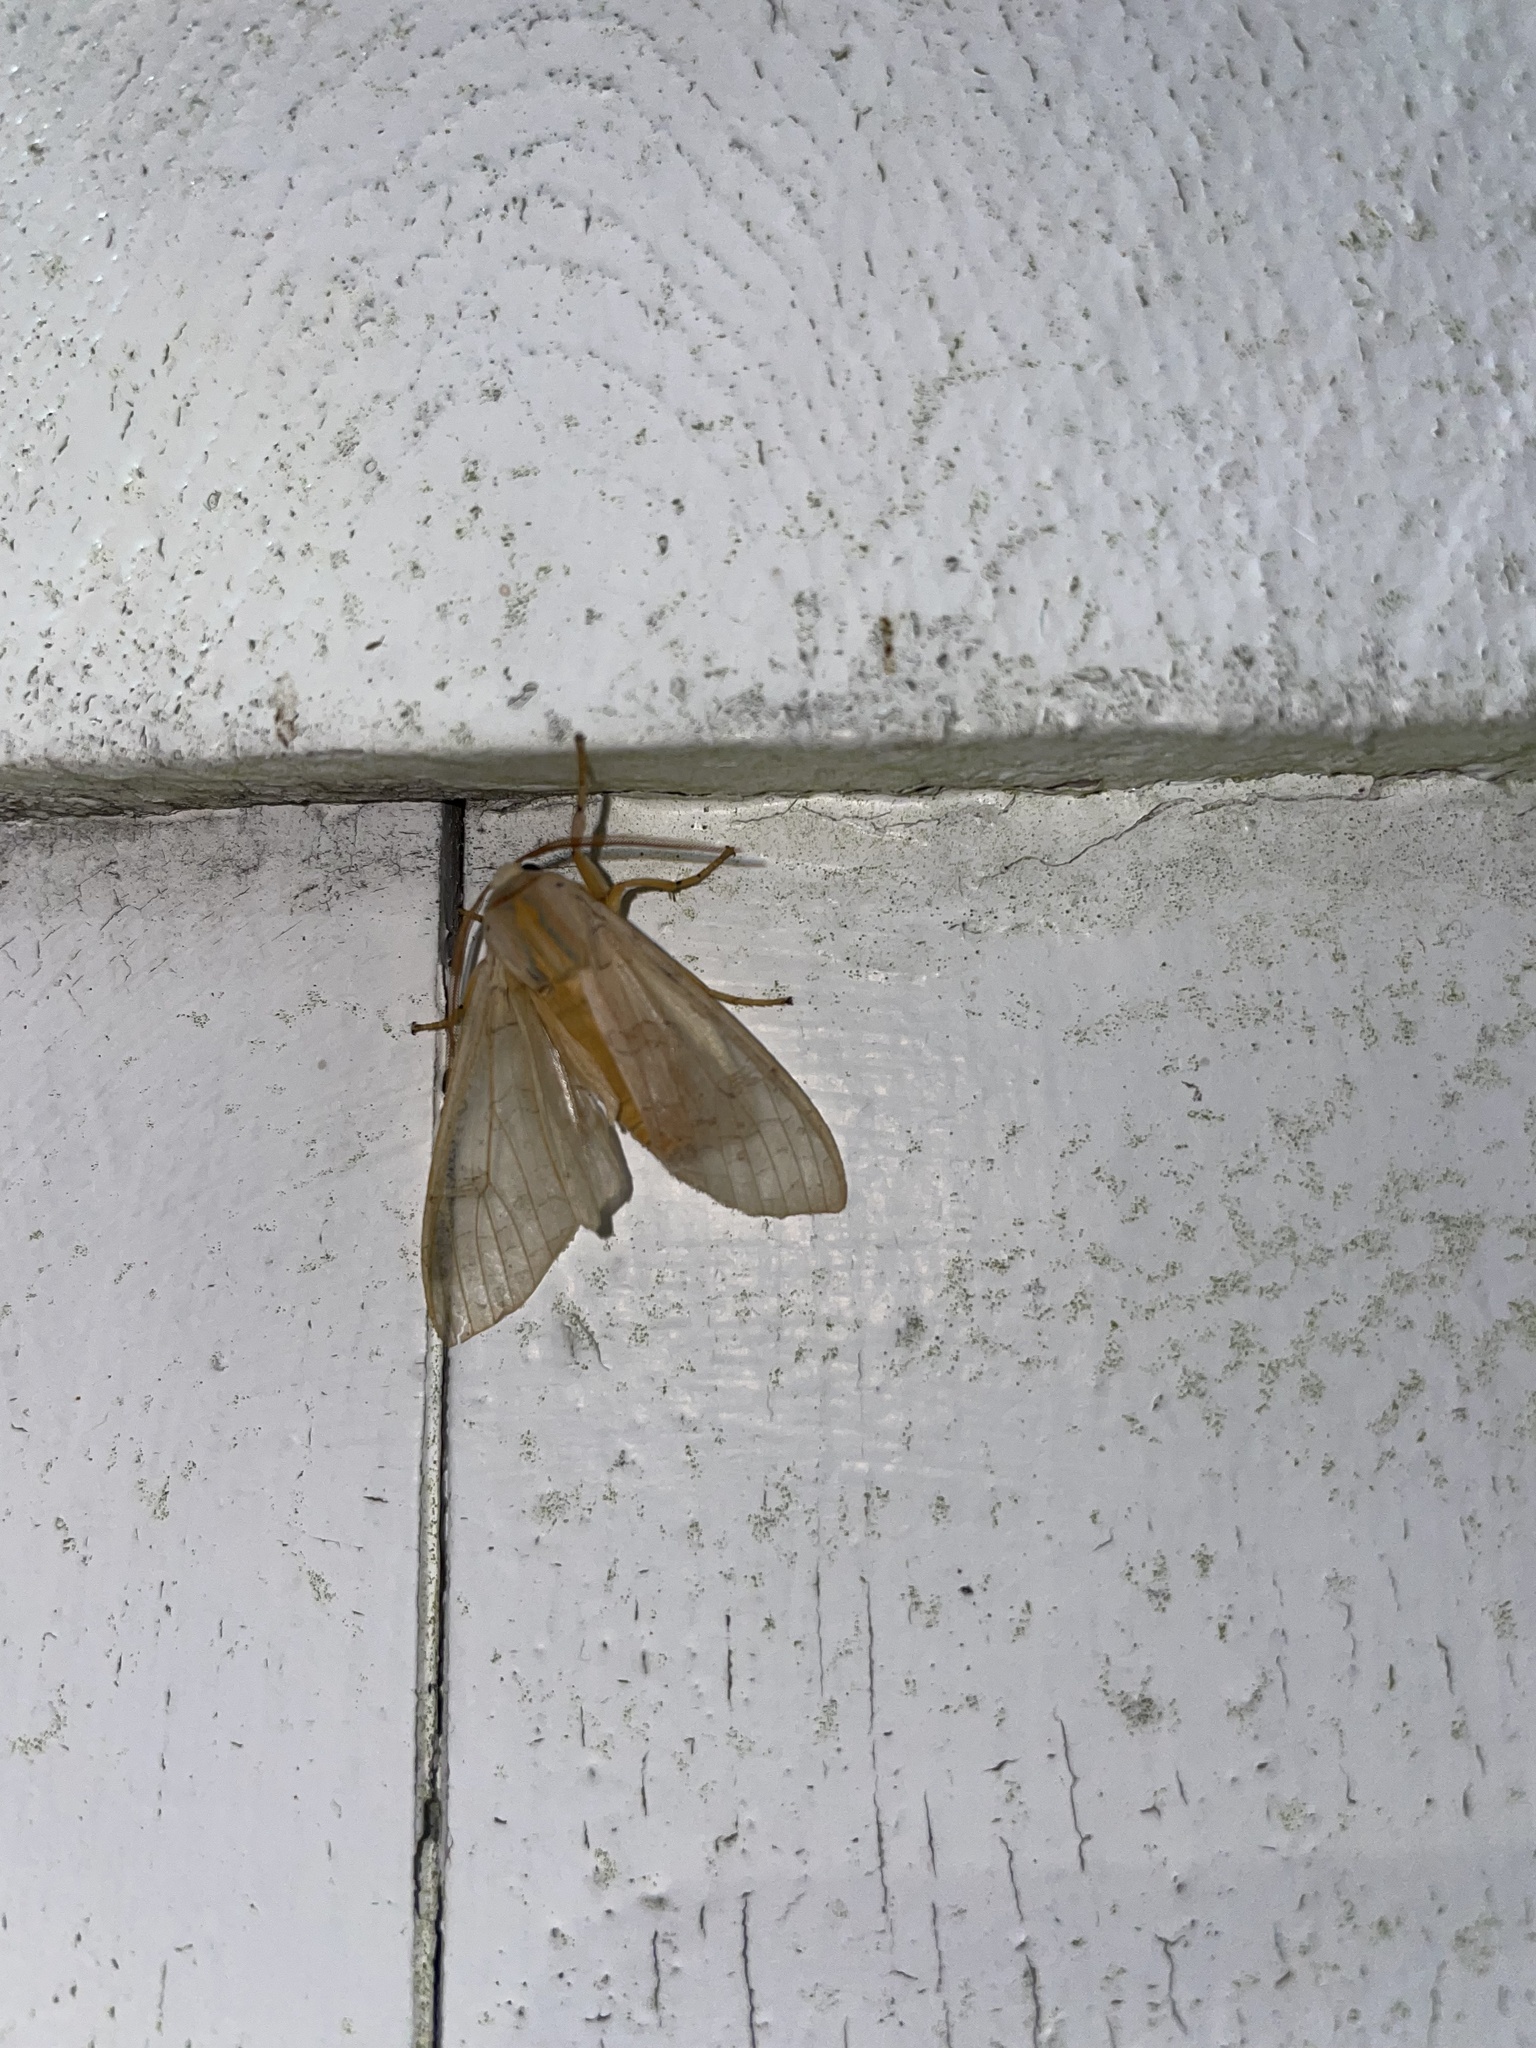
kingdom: Animalia
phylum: Arthropoda
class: Insecta
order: Lepidoptera
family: Erebidae
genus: Halysidota
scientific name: Halysidota tessellaris
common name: Banded tussock moth
